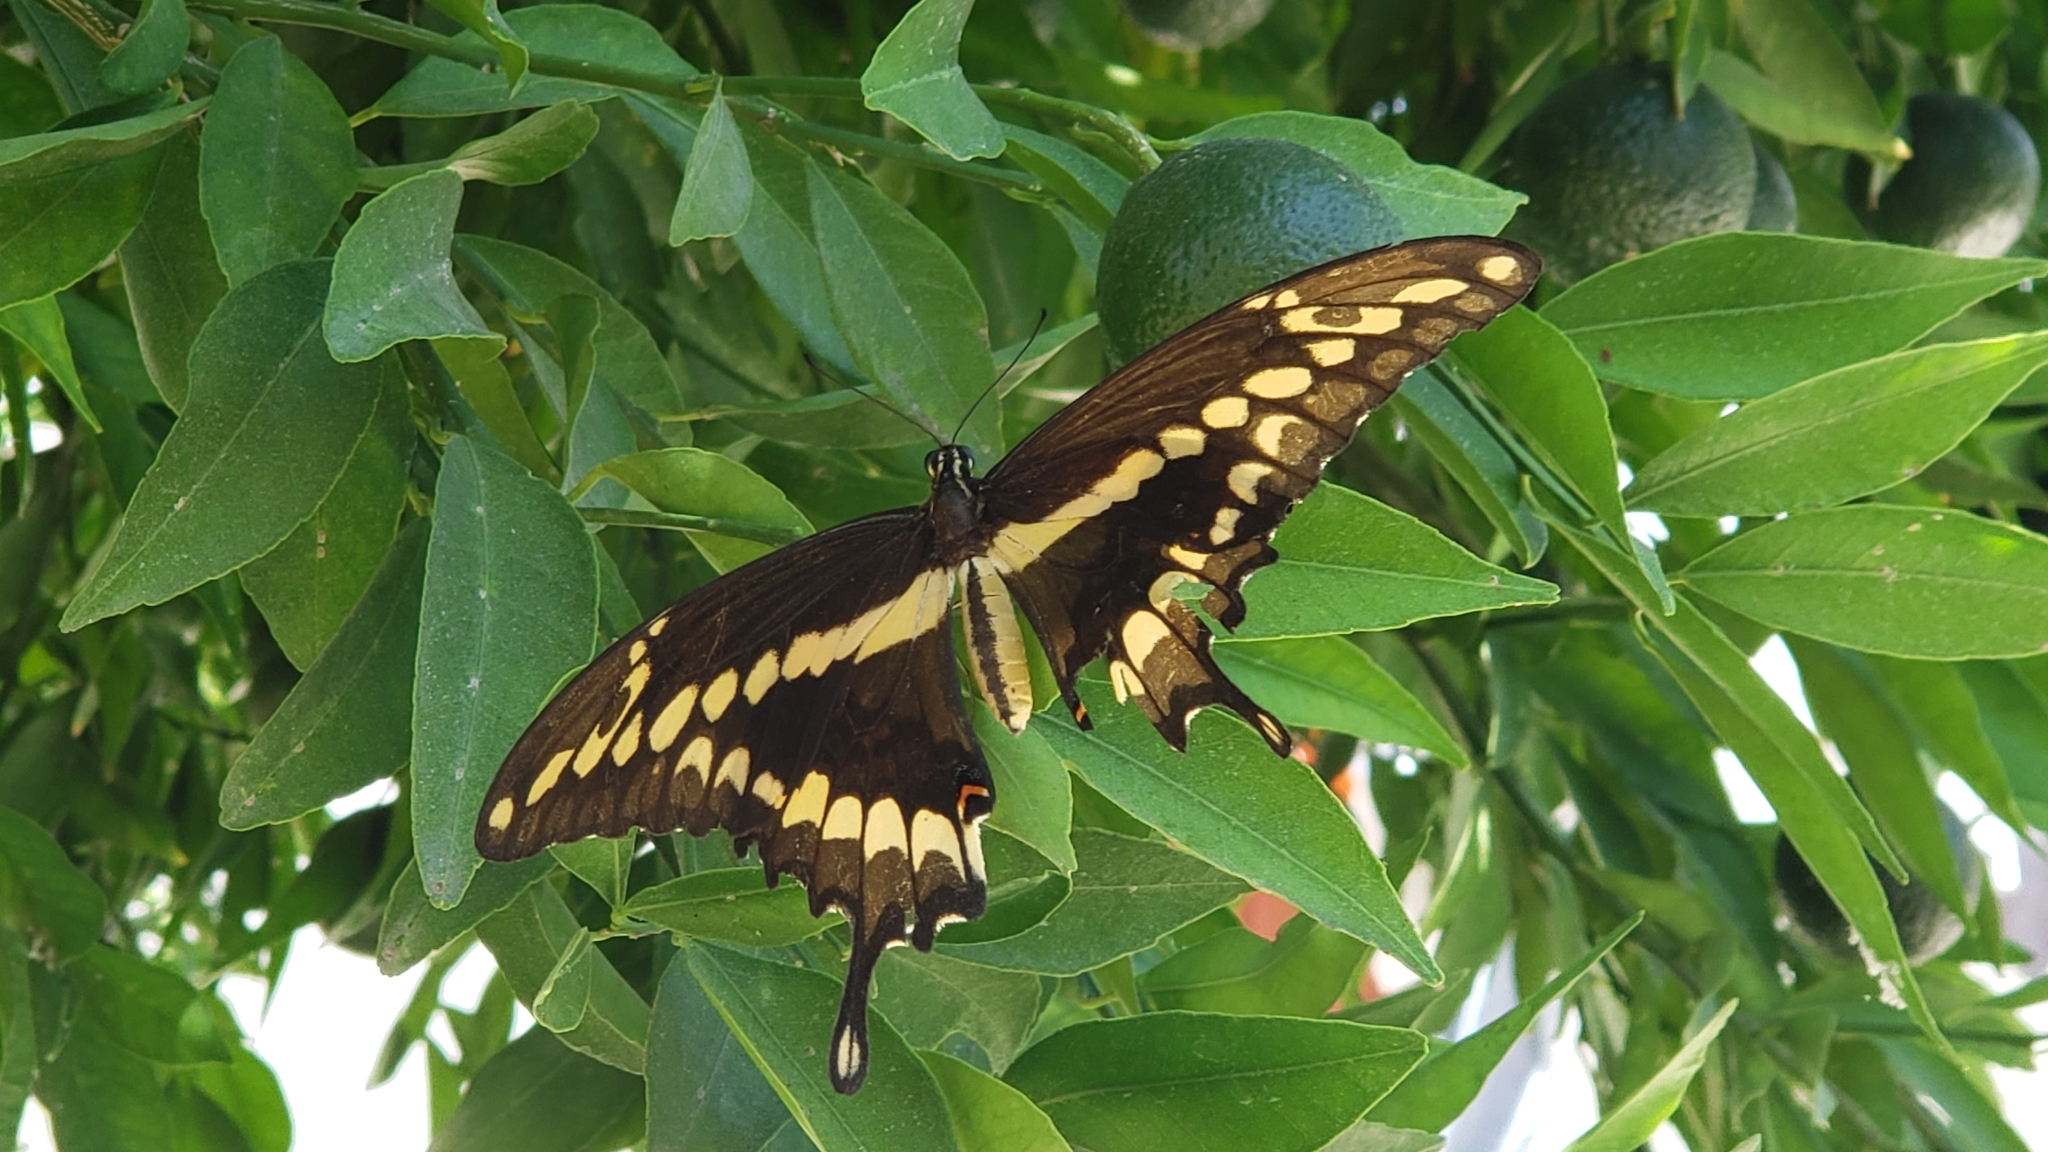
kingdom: Animalia
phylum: Arthropoda
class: Insecta
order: Lepidoptera
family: Papilionidae
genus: Papilio
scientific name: Papilio rumiko
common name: Western giant swallowtail
